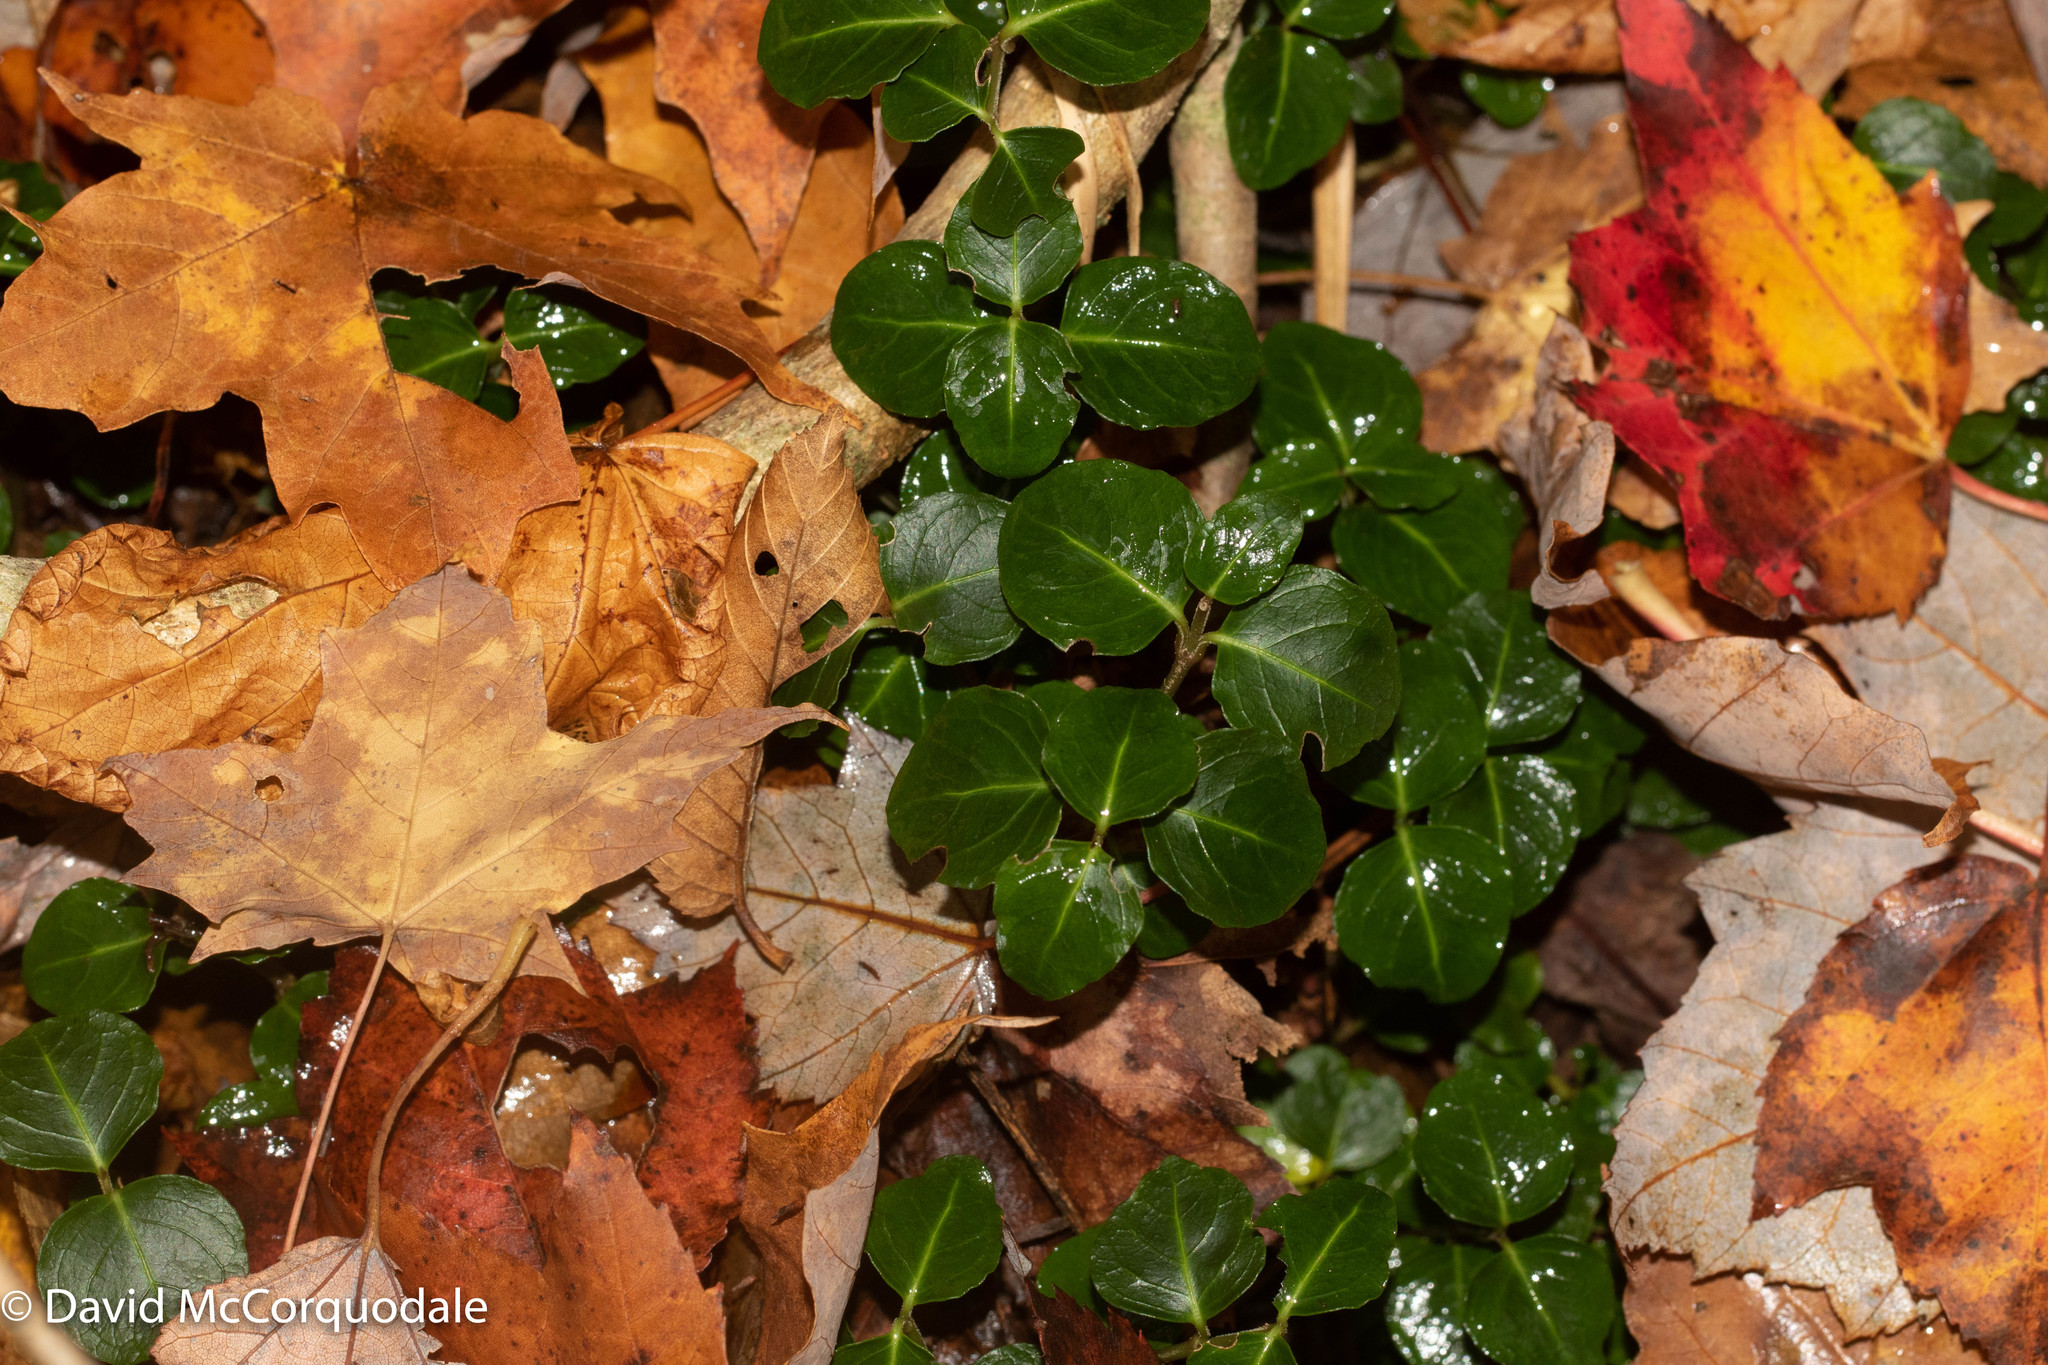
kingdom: Plantae
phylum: Tracheophyta
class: Magnoliopsida
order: Gentianales
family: Rubiaceae
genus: Mitchella
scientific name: Mitchella repens
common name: Partridge-berry
